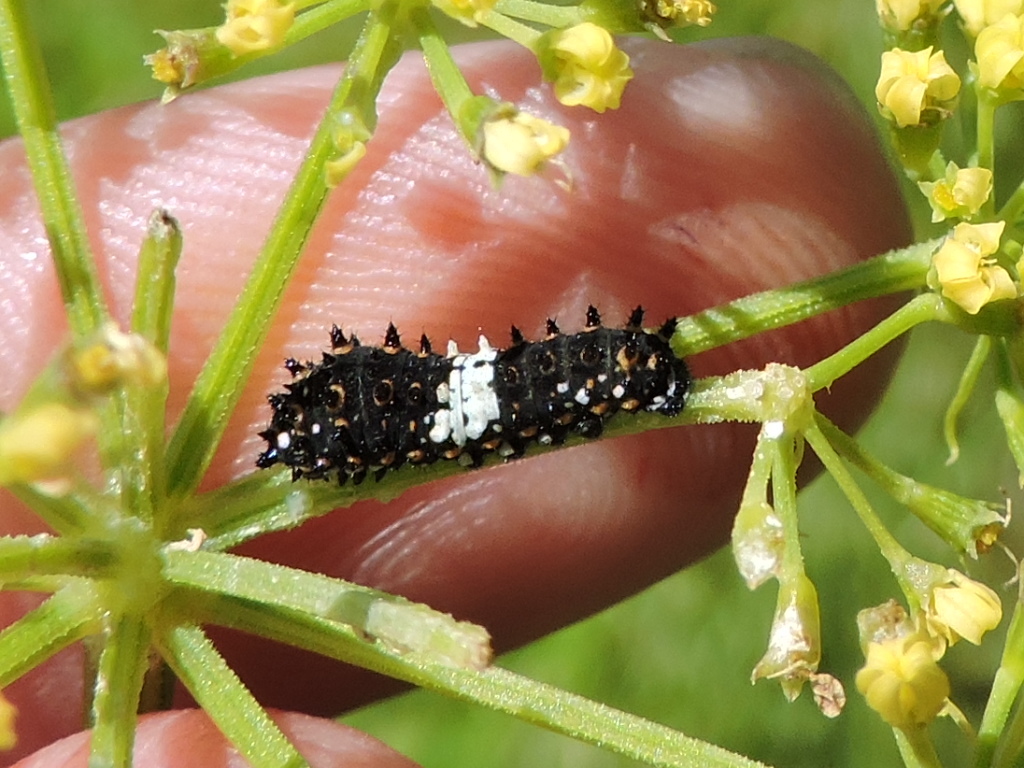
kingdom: Animalia
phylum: Arthropoda
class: Insecta
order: Lepidoptera
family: Papilionidae
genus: Papilio
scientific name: Papilio polyxenes
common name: Black swallowtail
